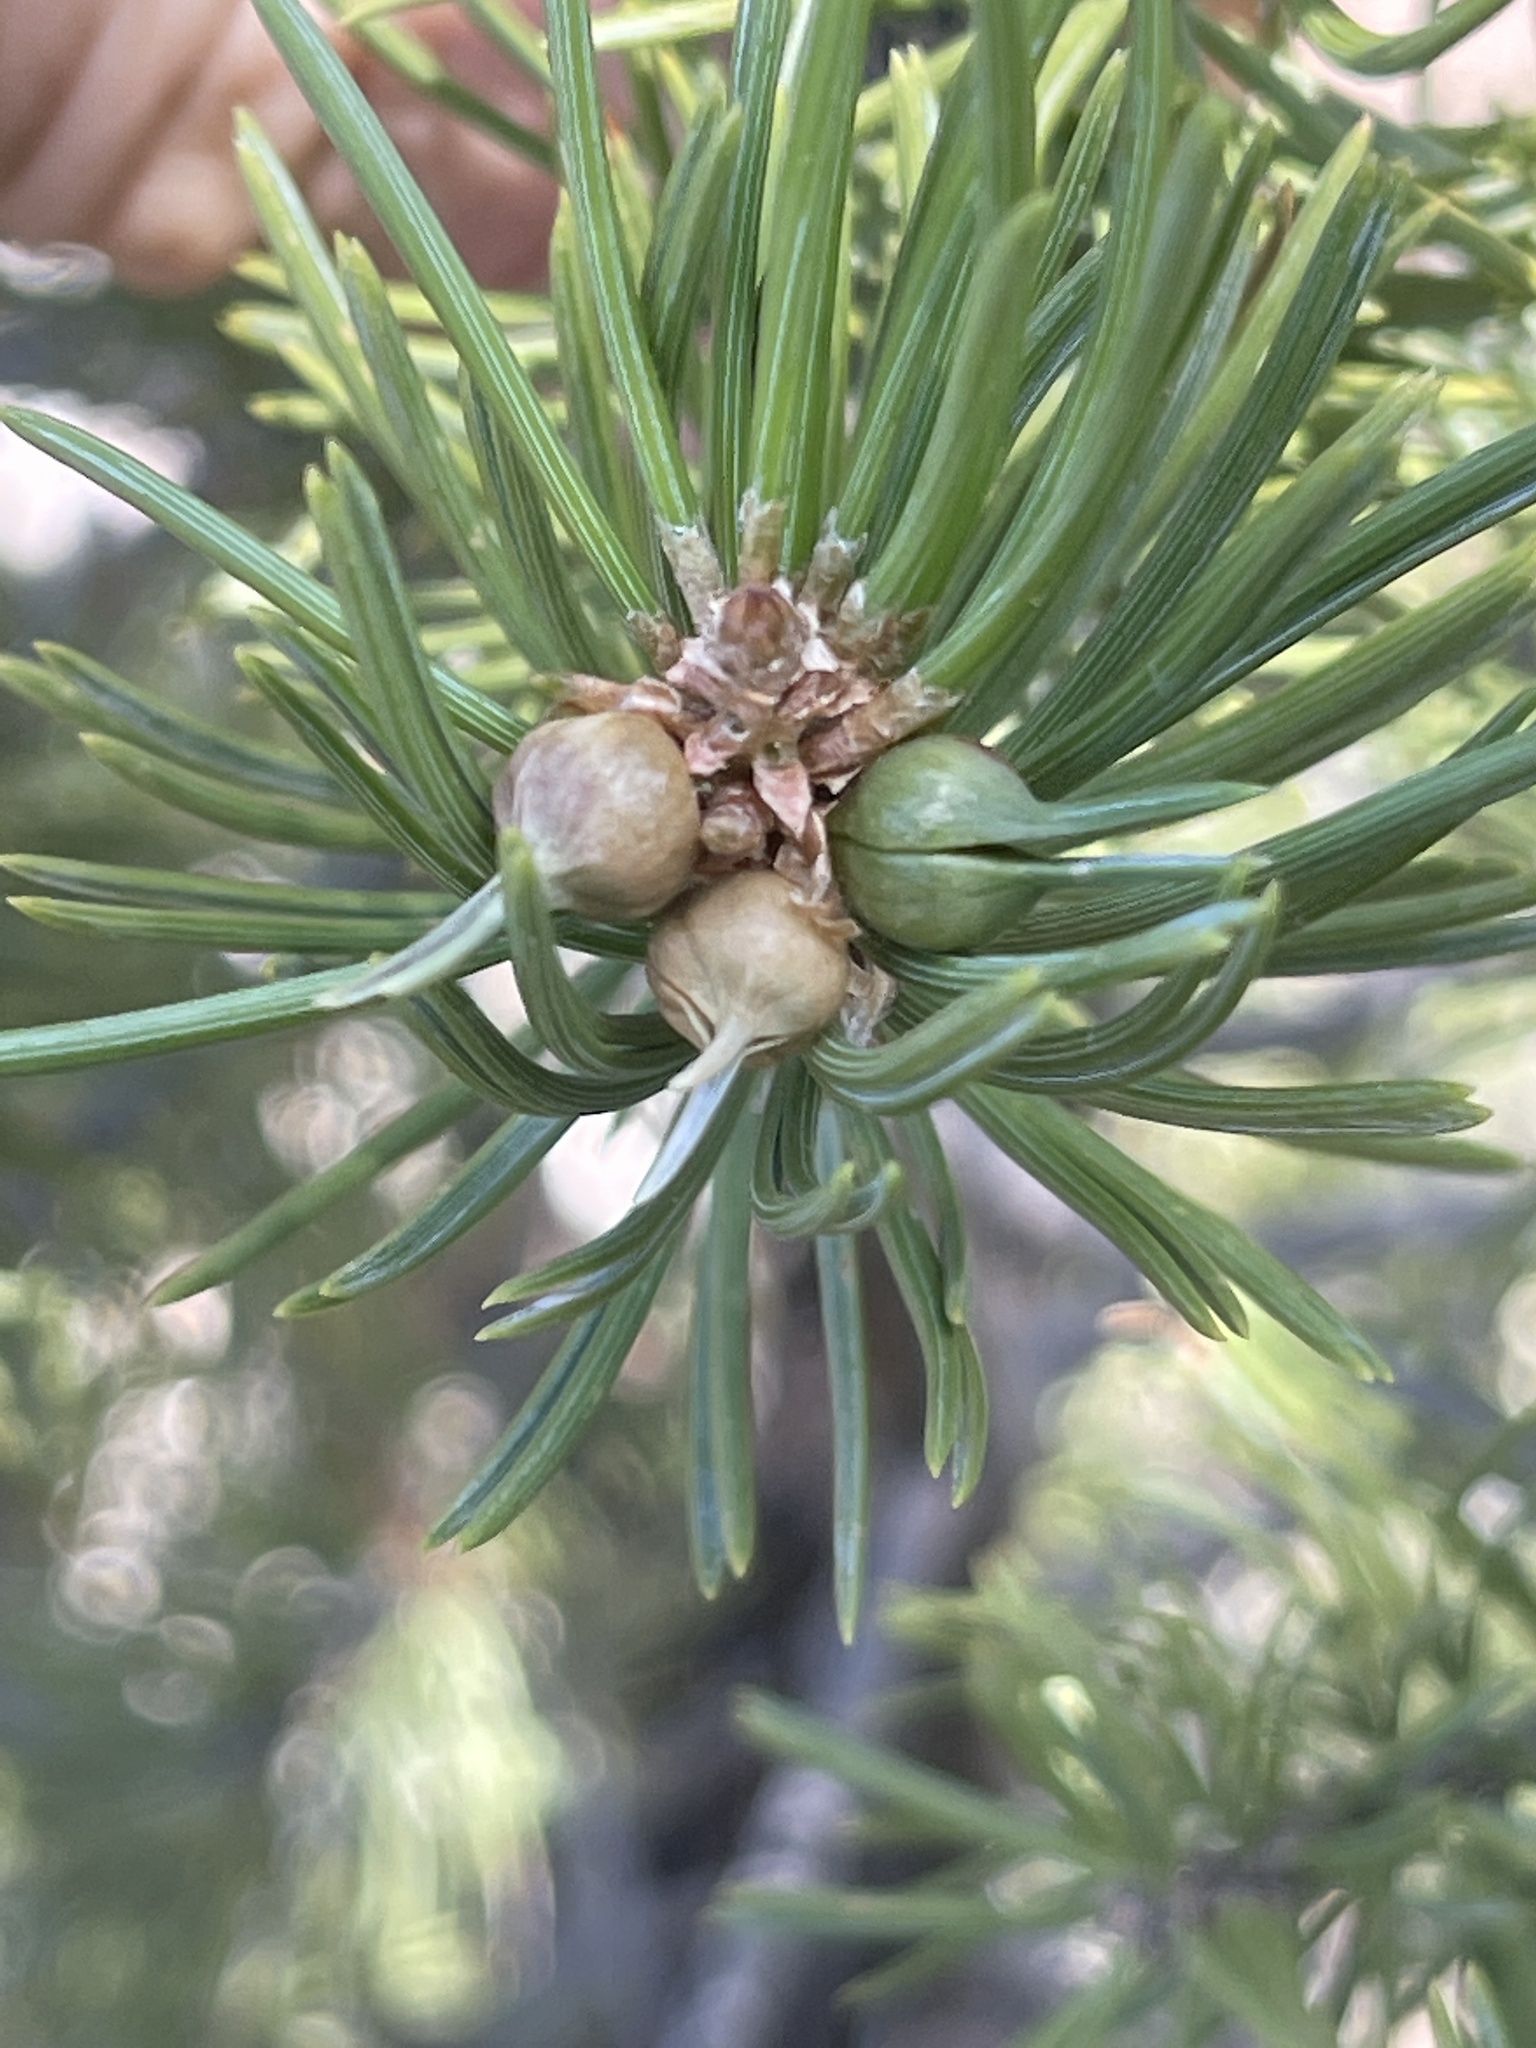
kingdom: Animalia
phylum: Arthropoda
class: Insecta
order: Diptera
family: Cecidomyiidae
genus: Cembrotia
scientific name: Cembrotia coloradensis
